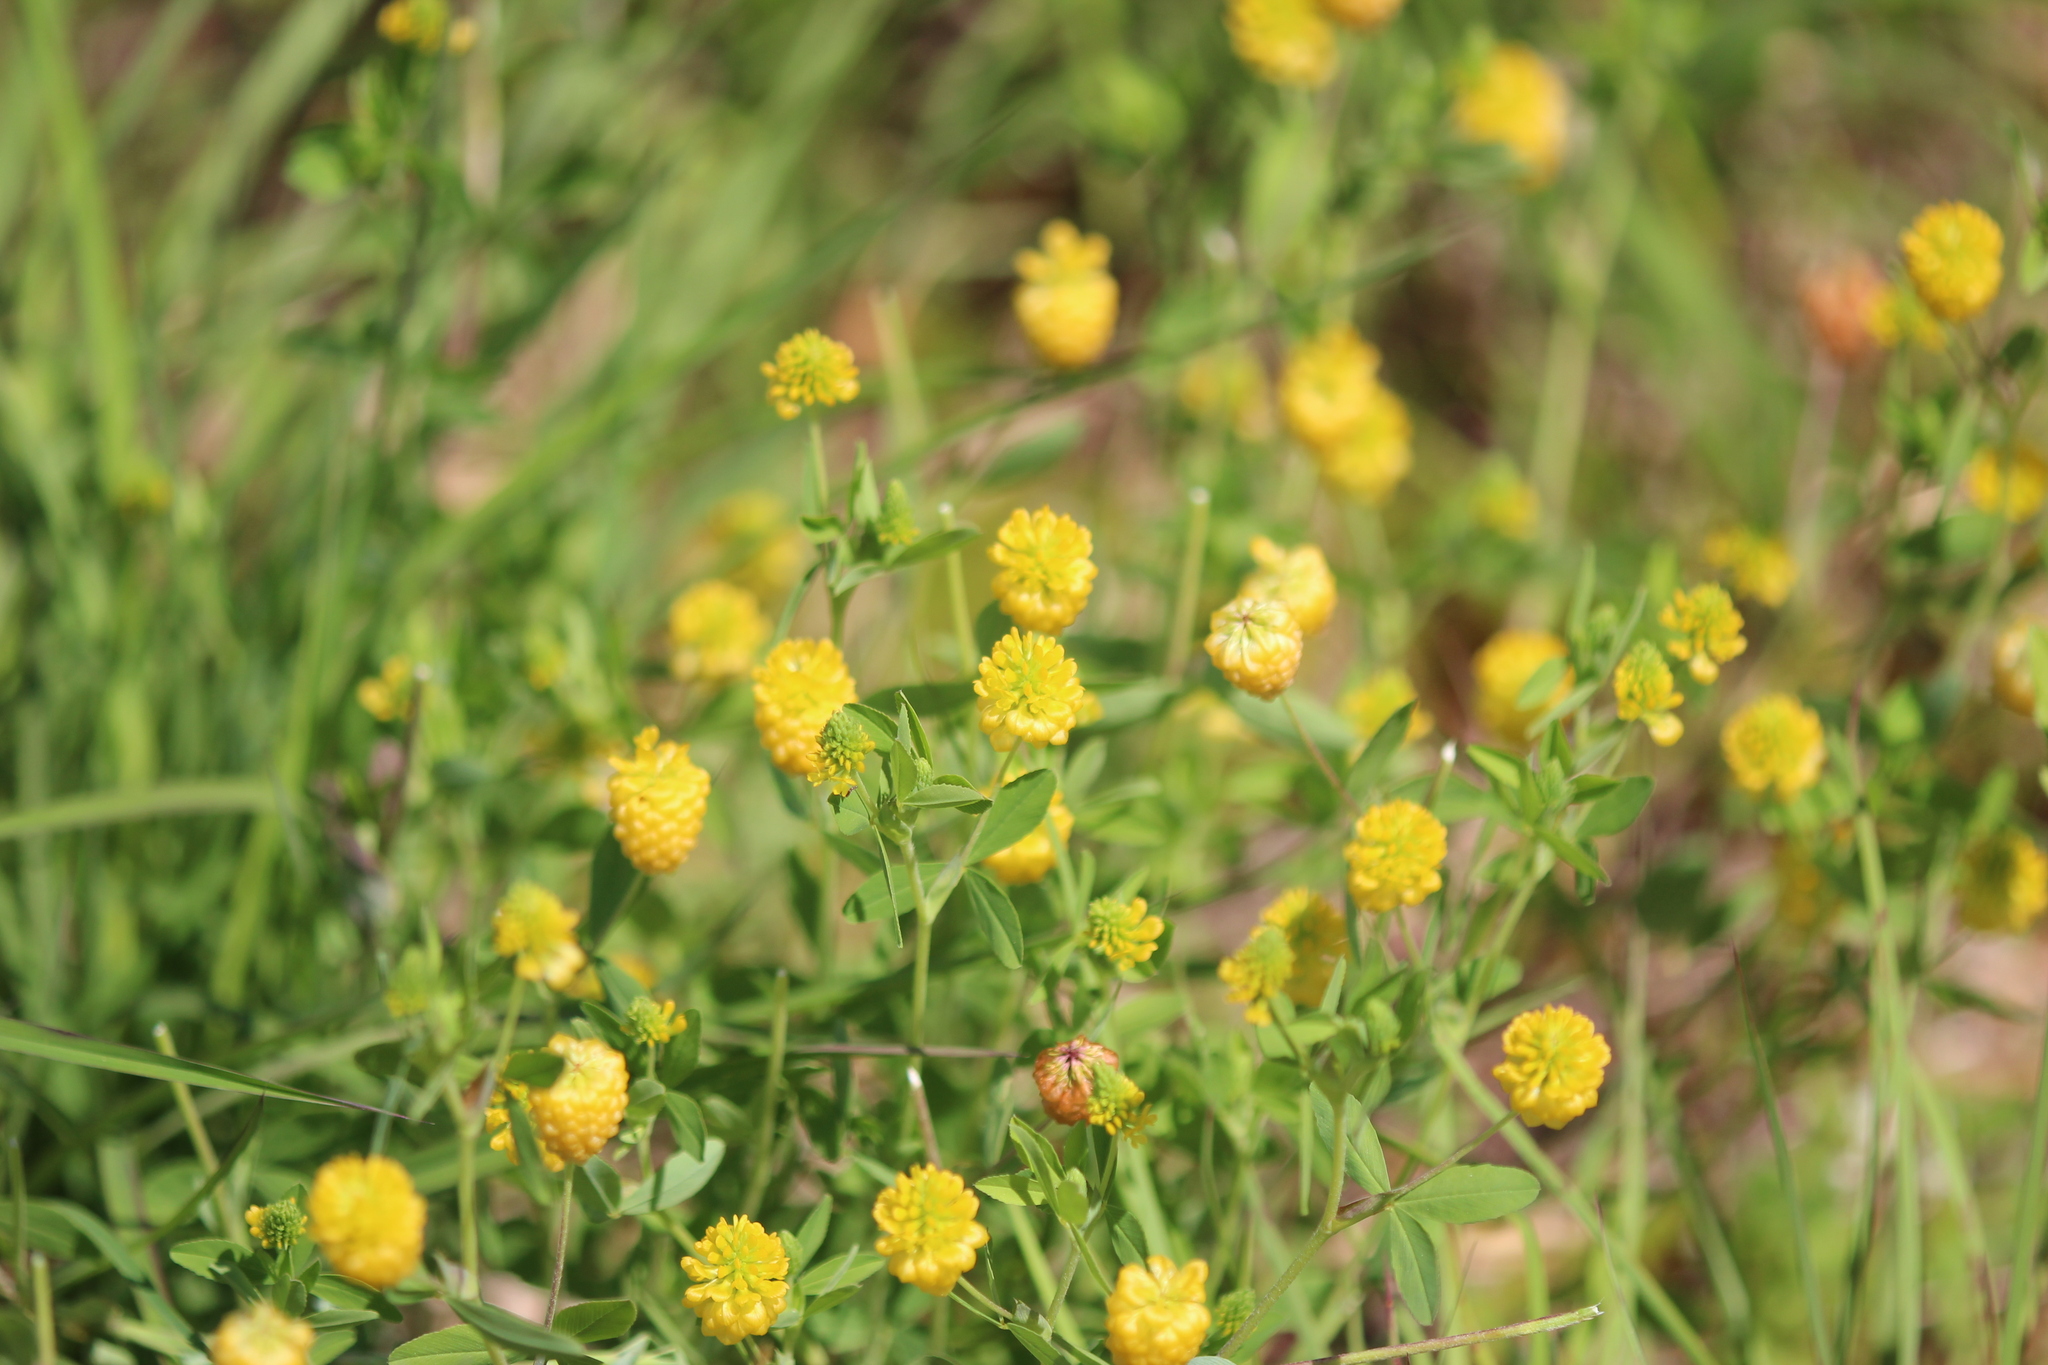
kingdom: Plantae
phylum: Tracheophyta
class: Magnoliopsida
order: Fabales
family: Fabaceae
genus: Trifolium
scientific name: Trifolium aureum
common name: Golden clover
